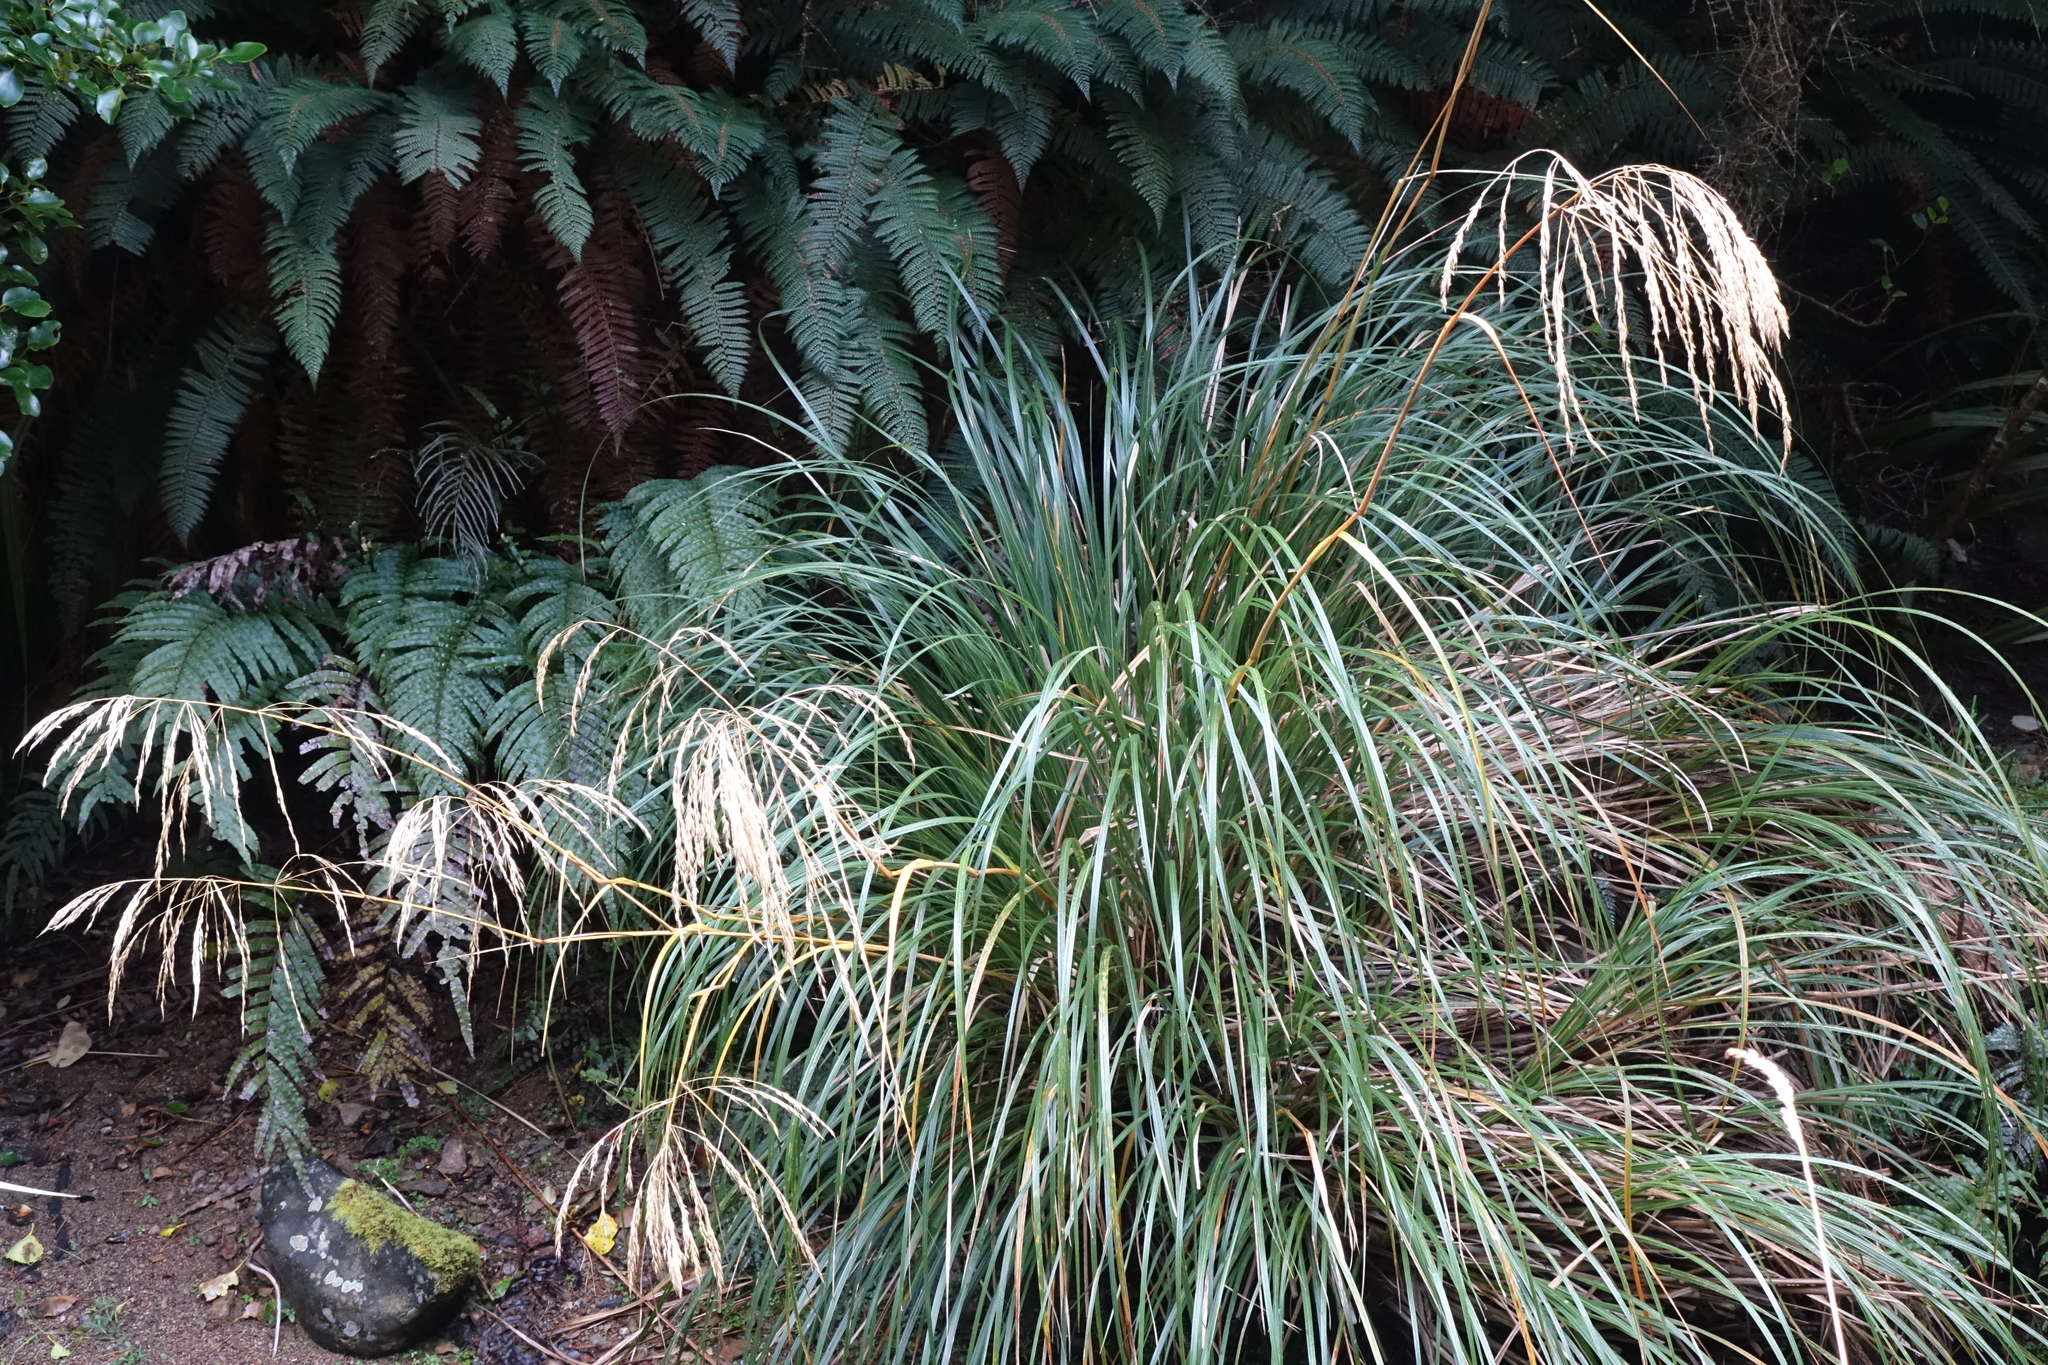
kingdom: Plantae
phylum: Tracheophyta
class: Liliopsida
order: Poales
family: Poaceae
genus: Chionochloa
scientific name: Chionochloa conspicua
